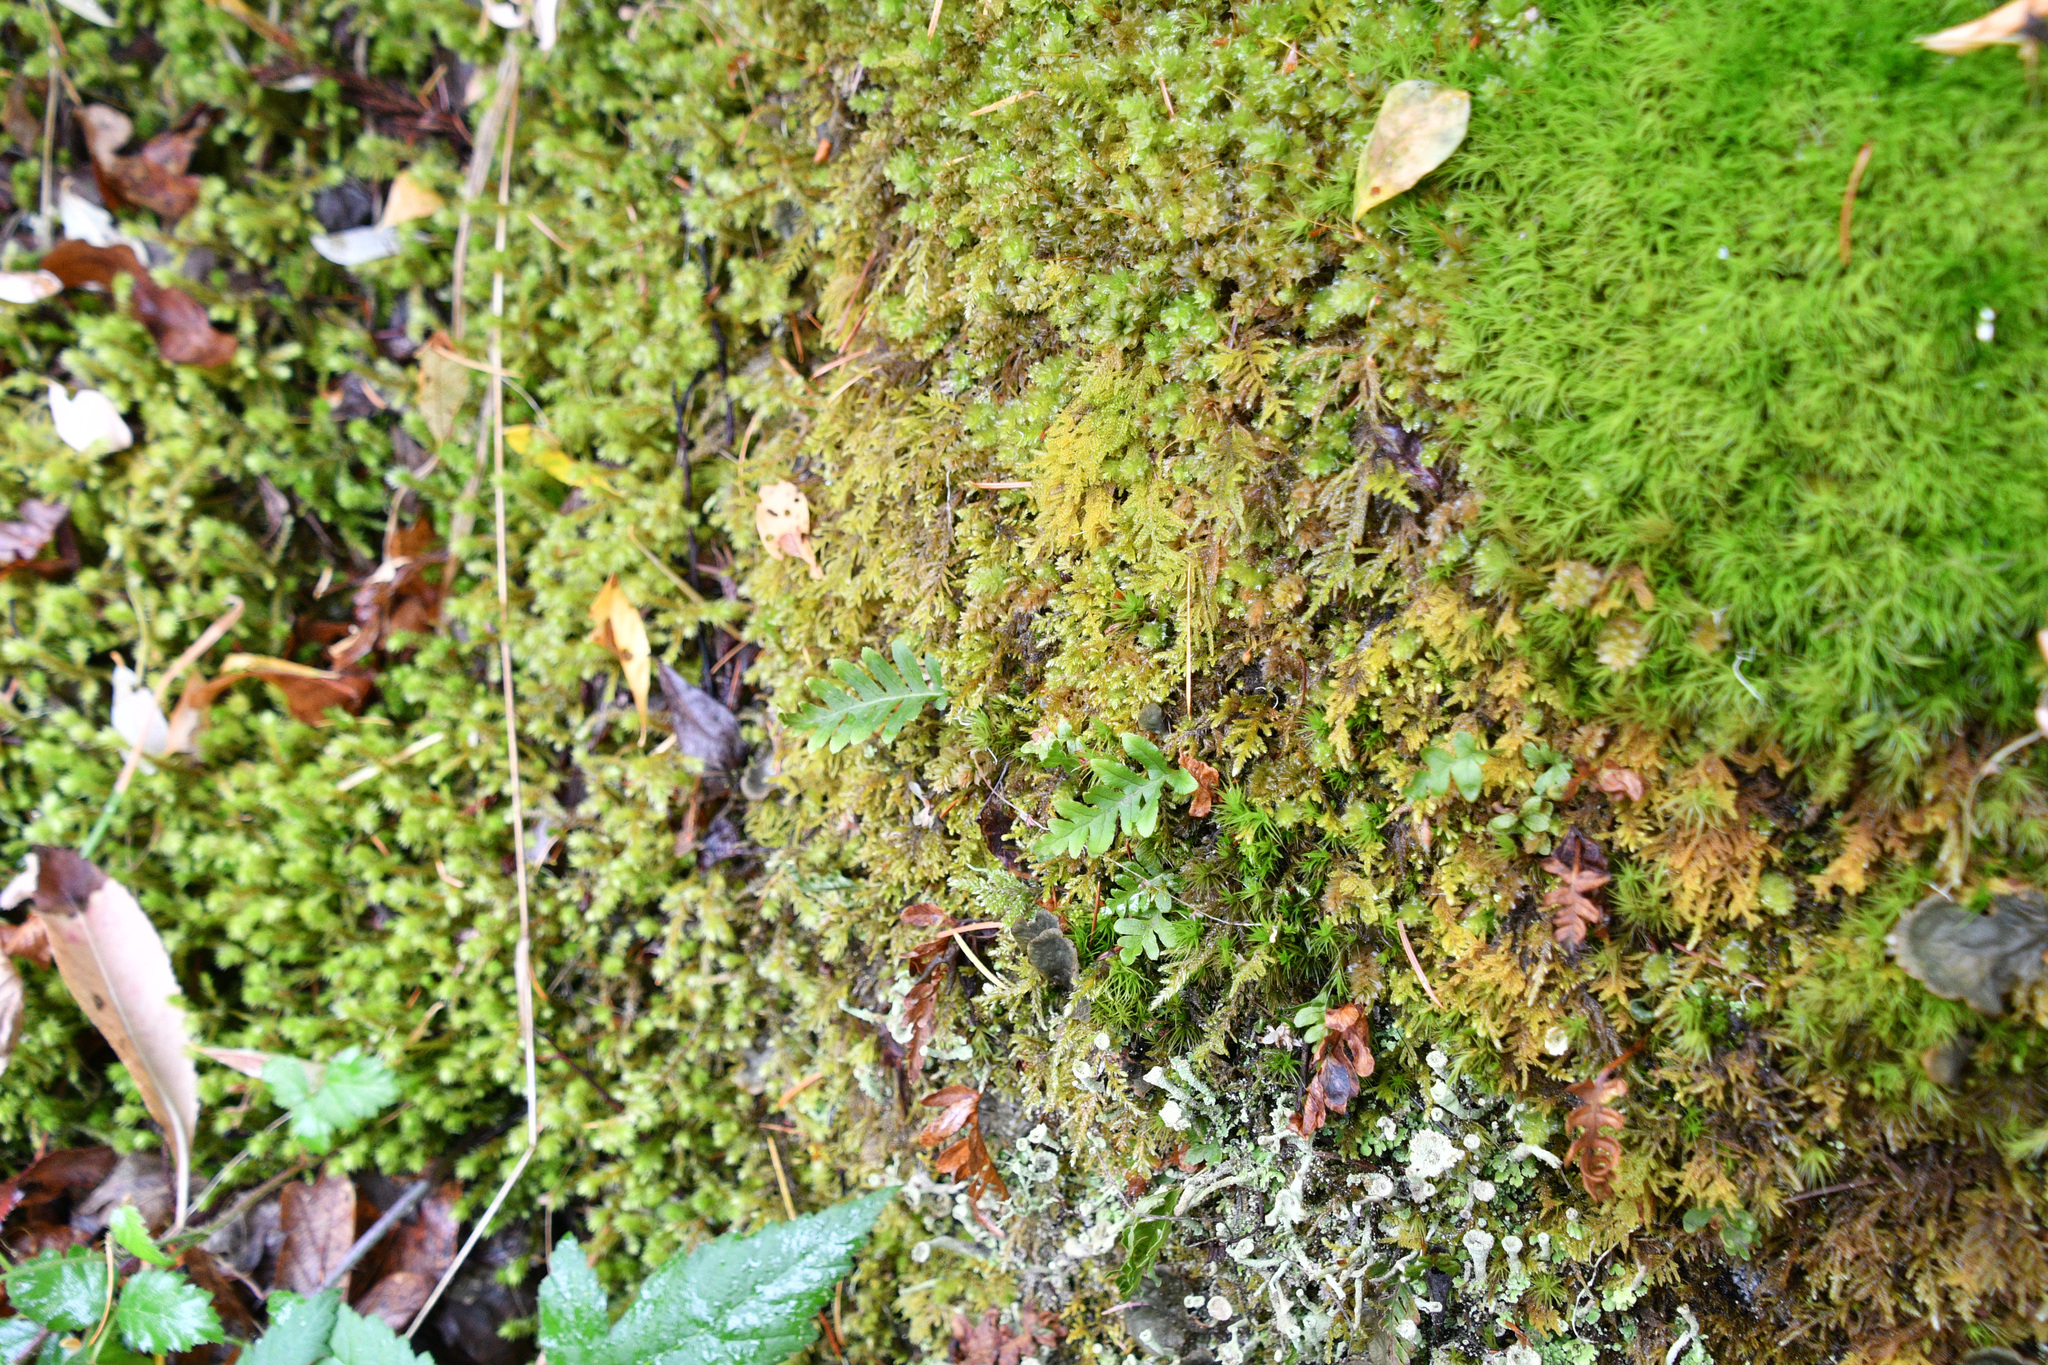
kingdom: Plantae
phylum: Tracheophyta
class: Polypodiopsida
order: Polypodiales
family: Polypodiaceae
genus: Polypodium
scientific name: Polypodium glycyrrhiza
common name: Licorice fern
